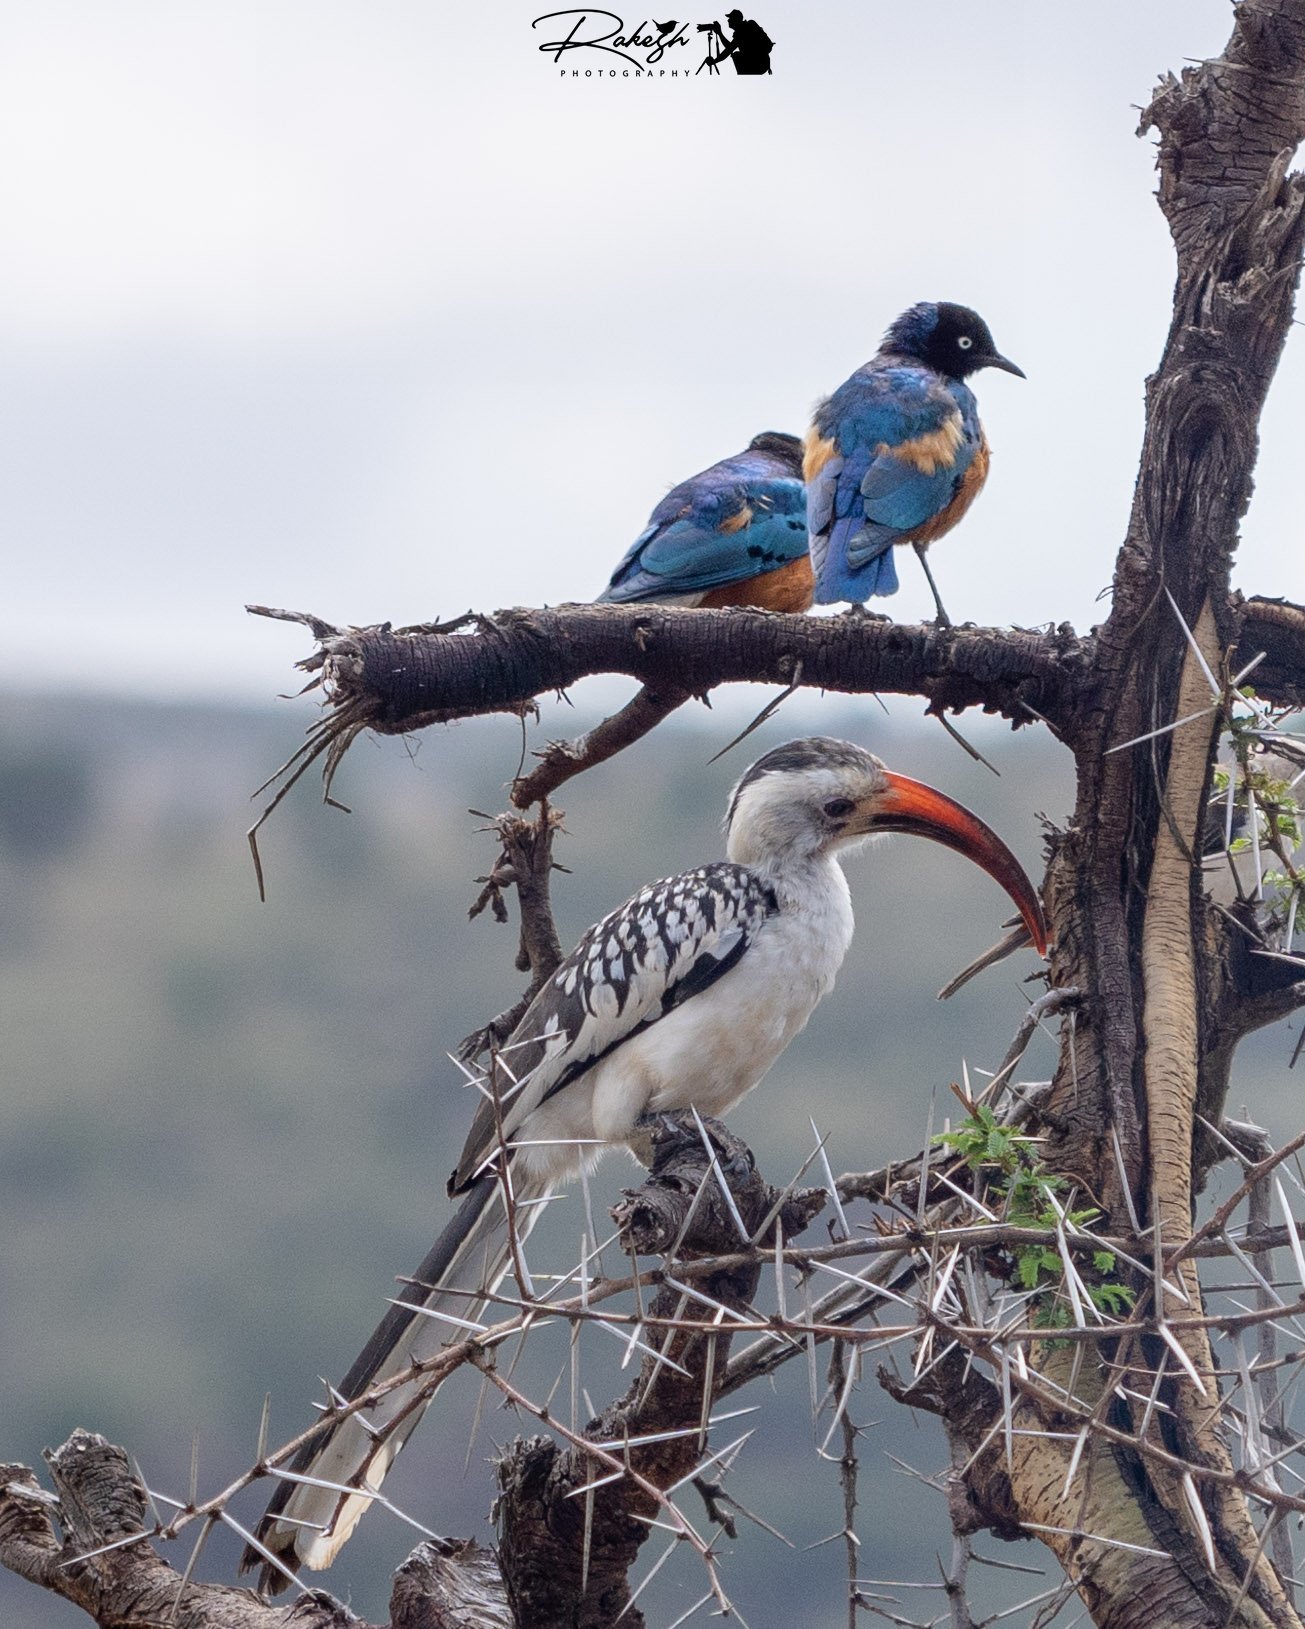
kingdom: Animalia
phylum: Chordata
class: Aves
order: Bucerotiformes
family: Bucerotidae
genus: Tockus
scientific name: Tockus erythrorhynchus
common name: Northern red-billed hornbill
